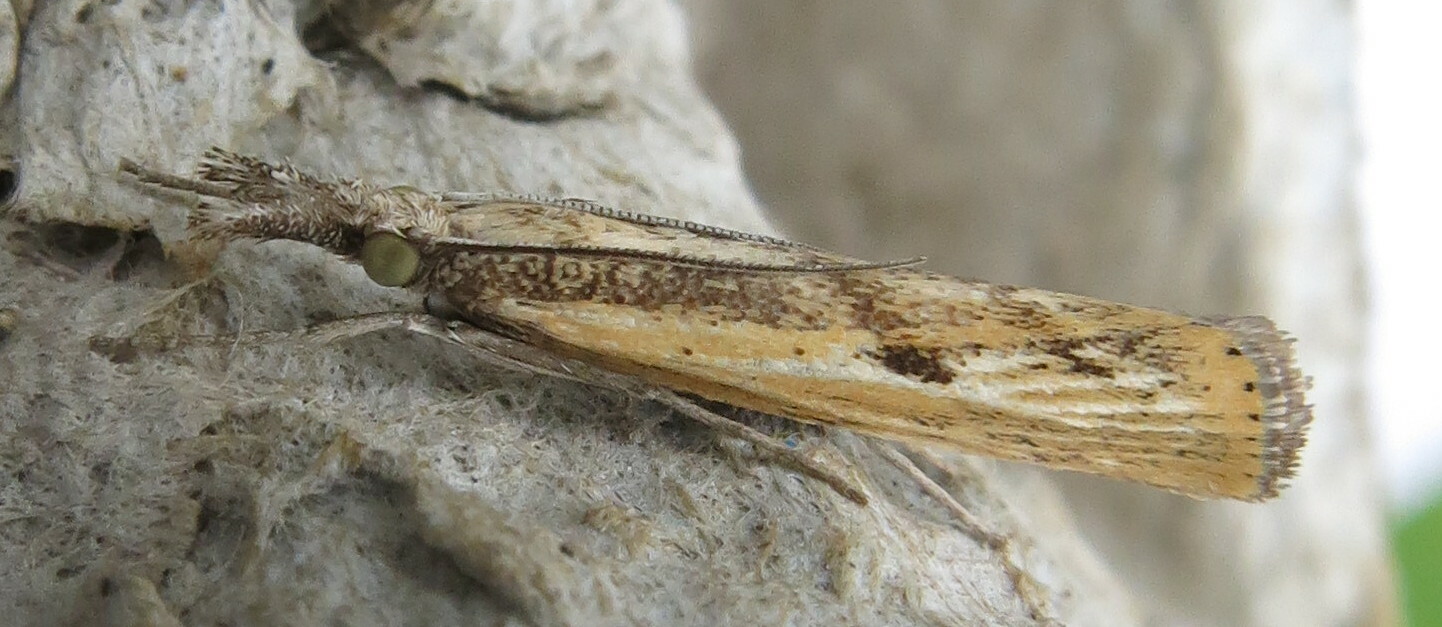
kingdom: Animalia
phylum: Arthropoda
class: Insecta
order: Lepidoptera
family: Crambidae
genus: Agriphila
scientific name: Agriphila inquinatella
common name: Barred grass-veneer
